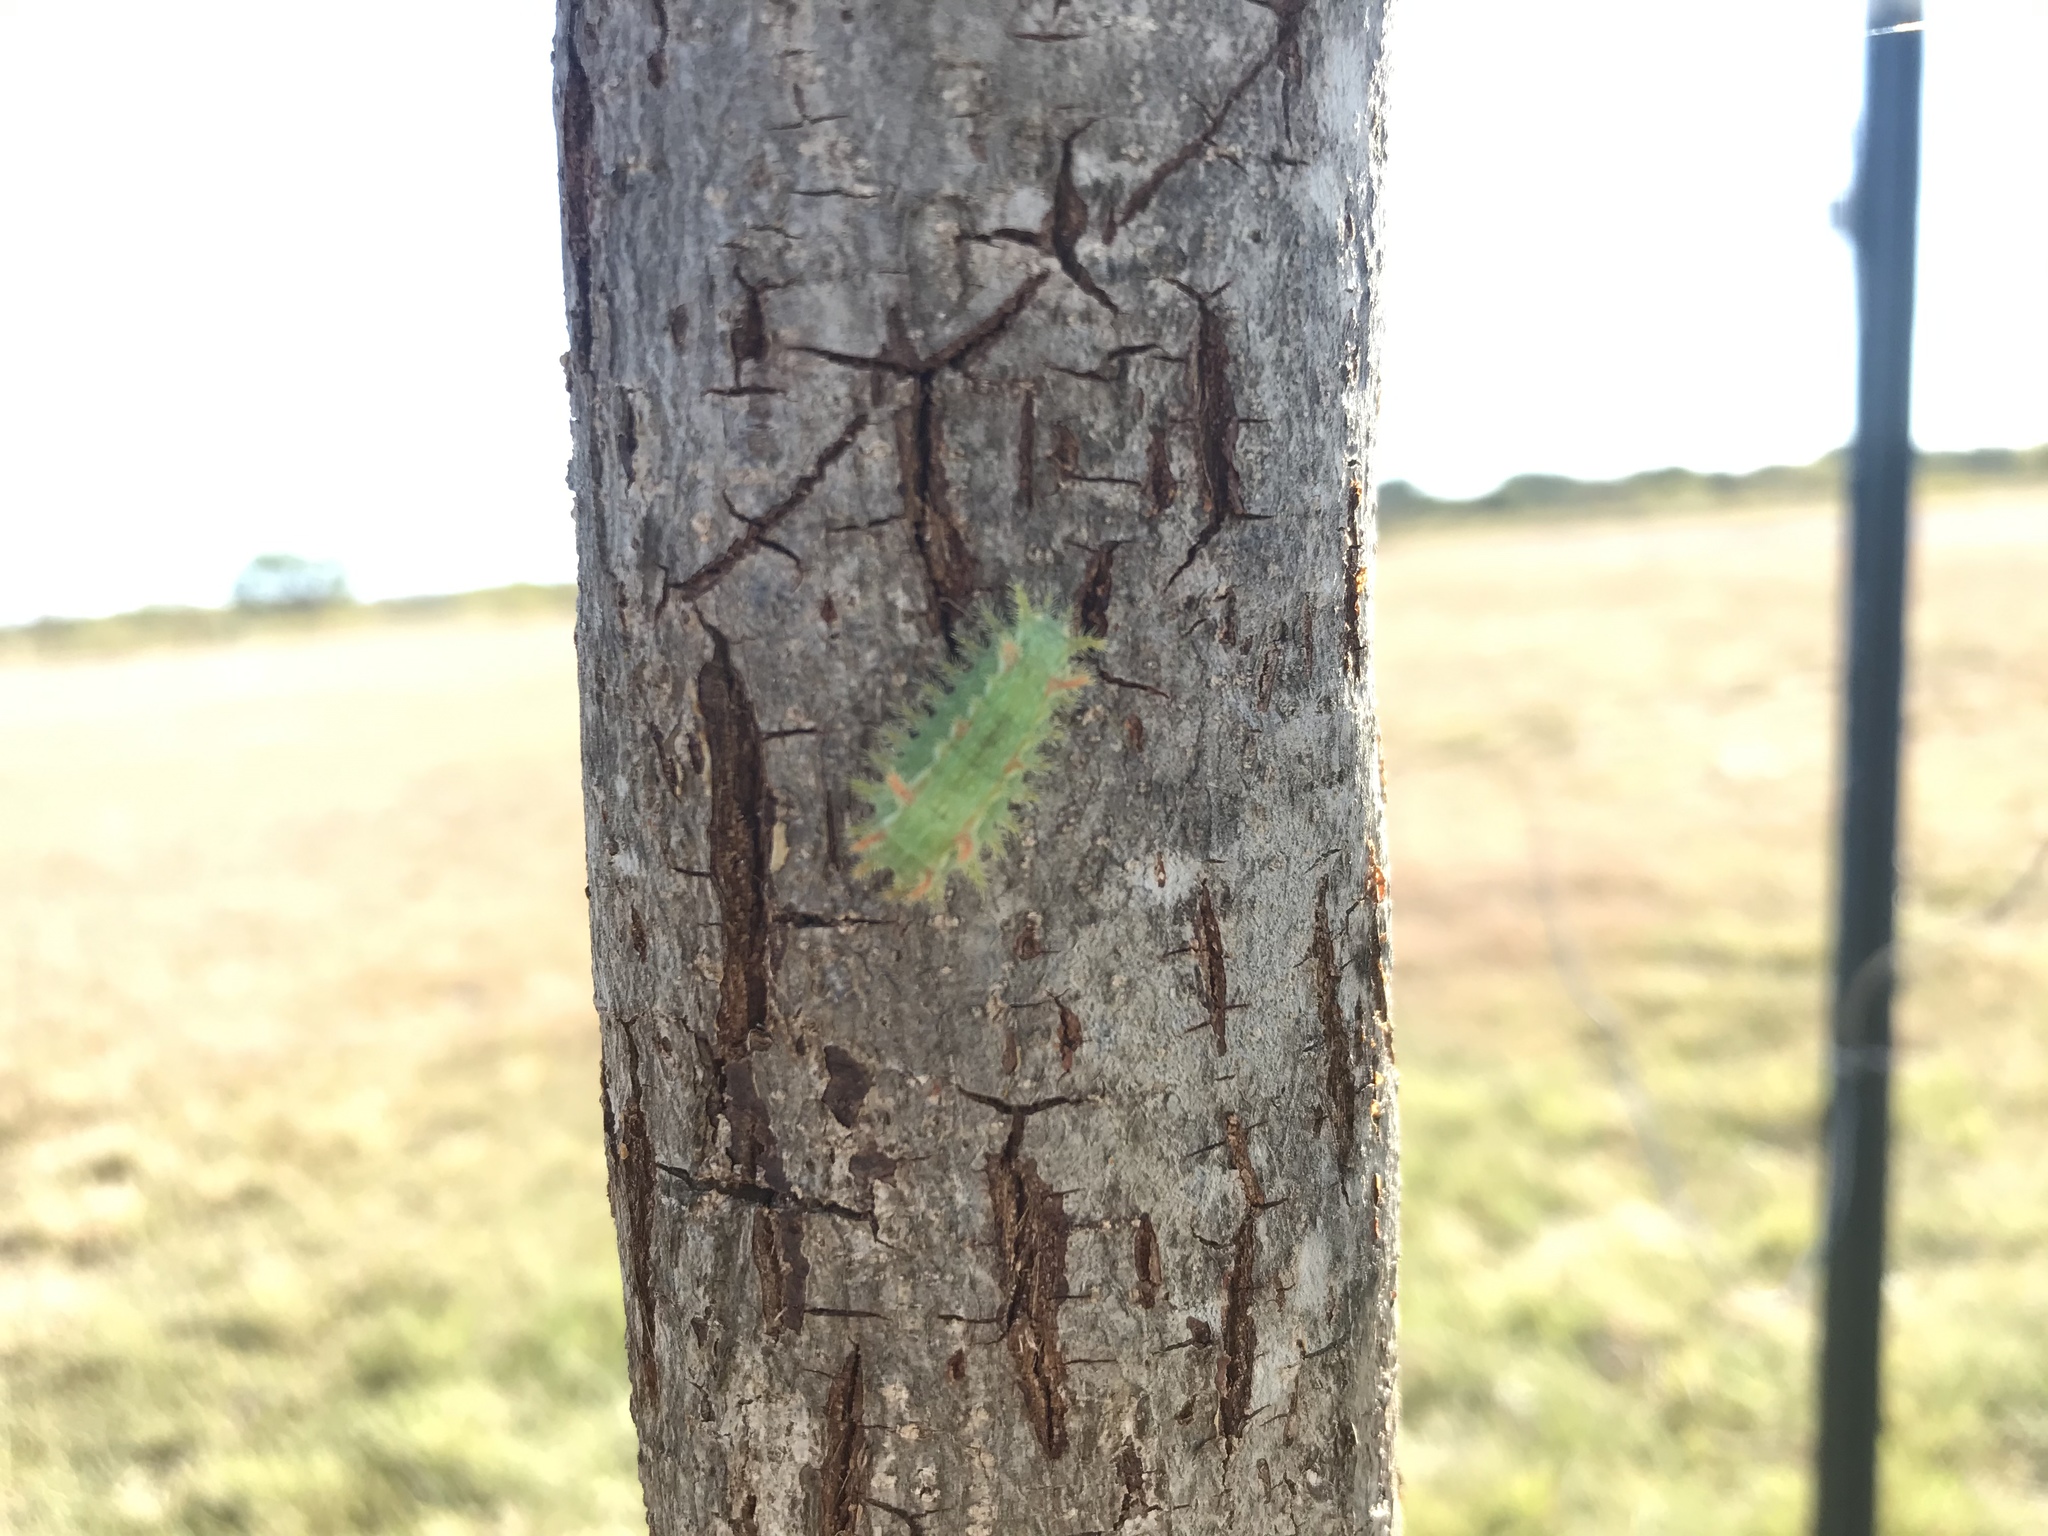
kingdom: Animalia
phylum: Arthropoda
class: Insecta
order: Lepidoptera
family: Limacodidae
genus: Euclea
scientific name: Euclea incisa
